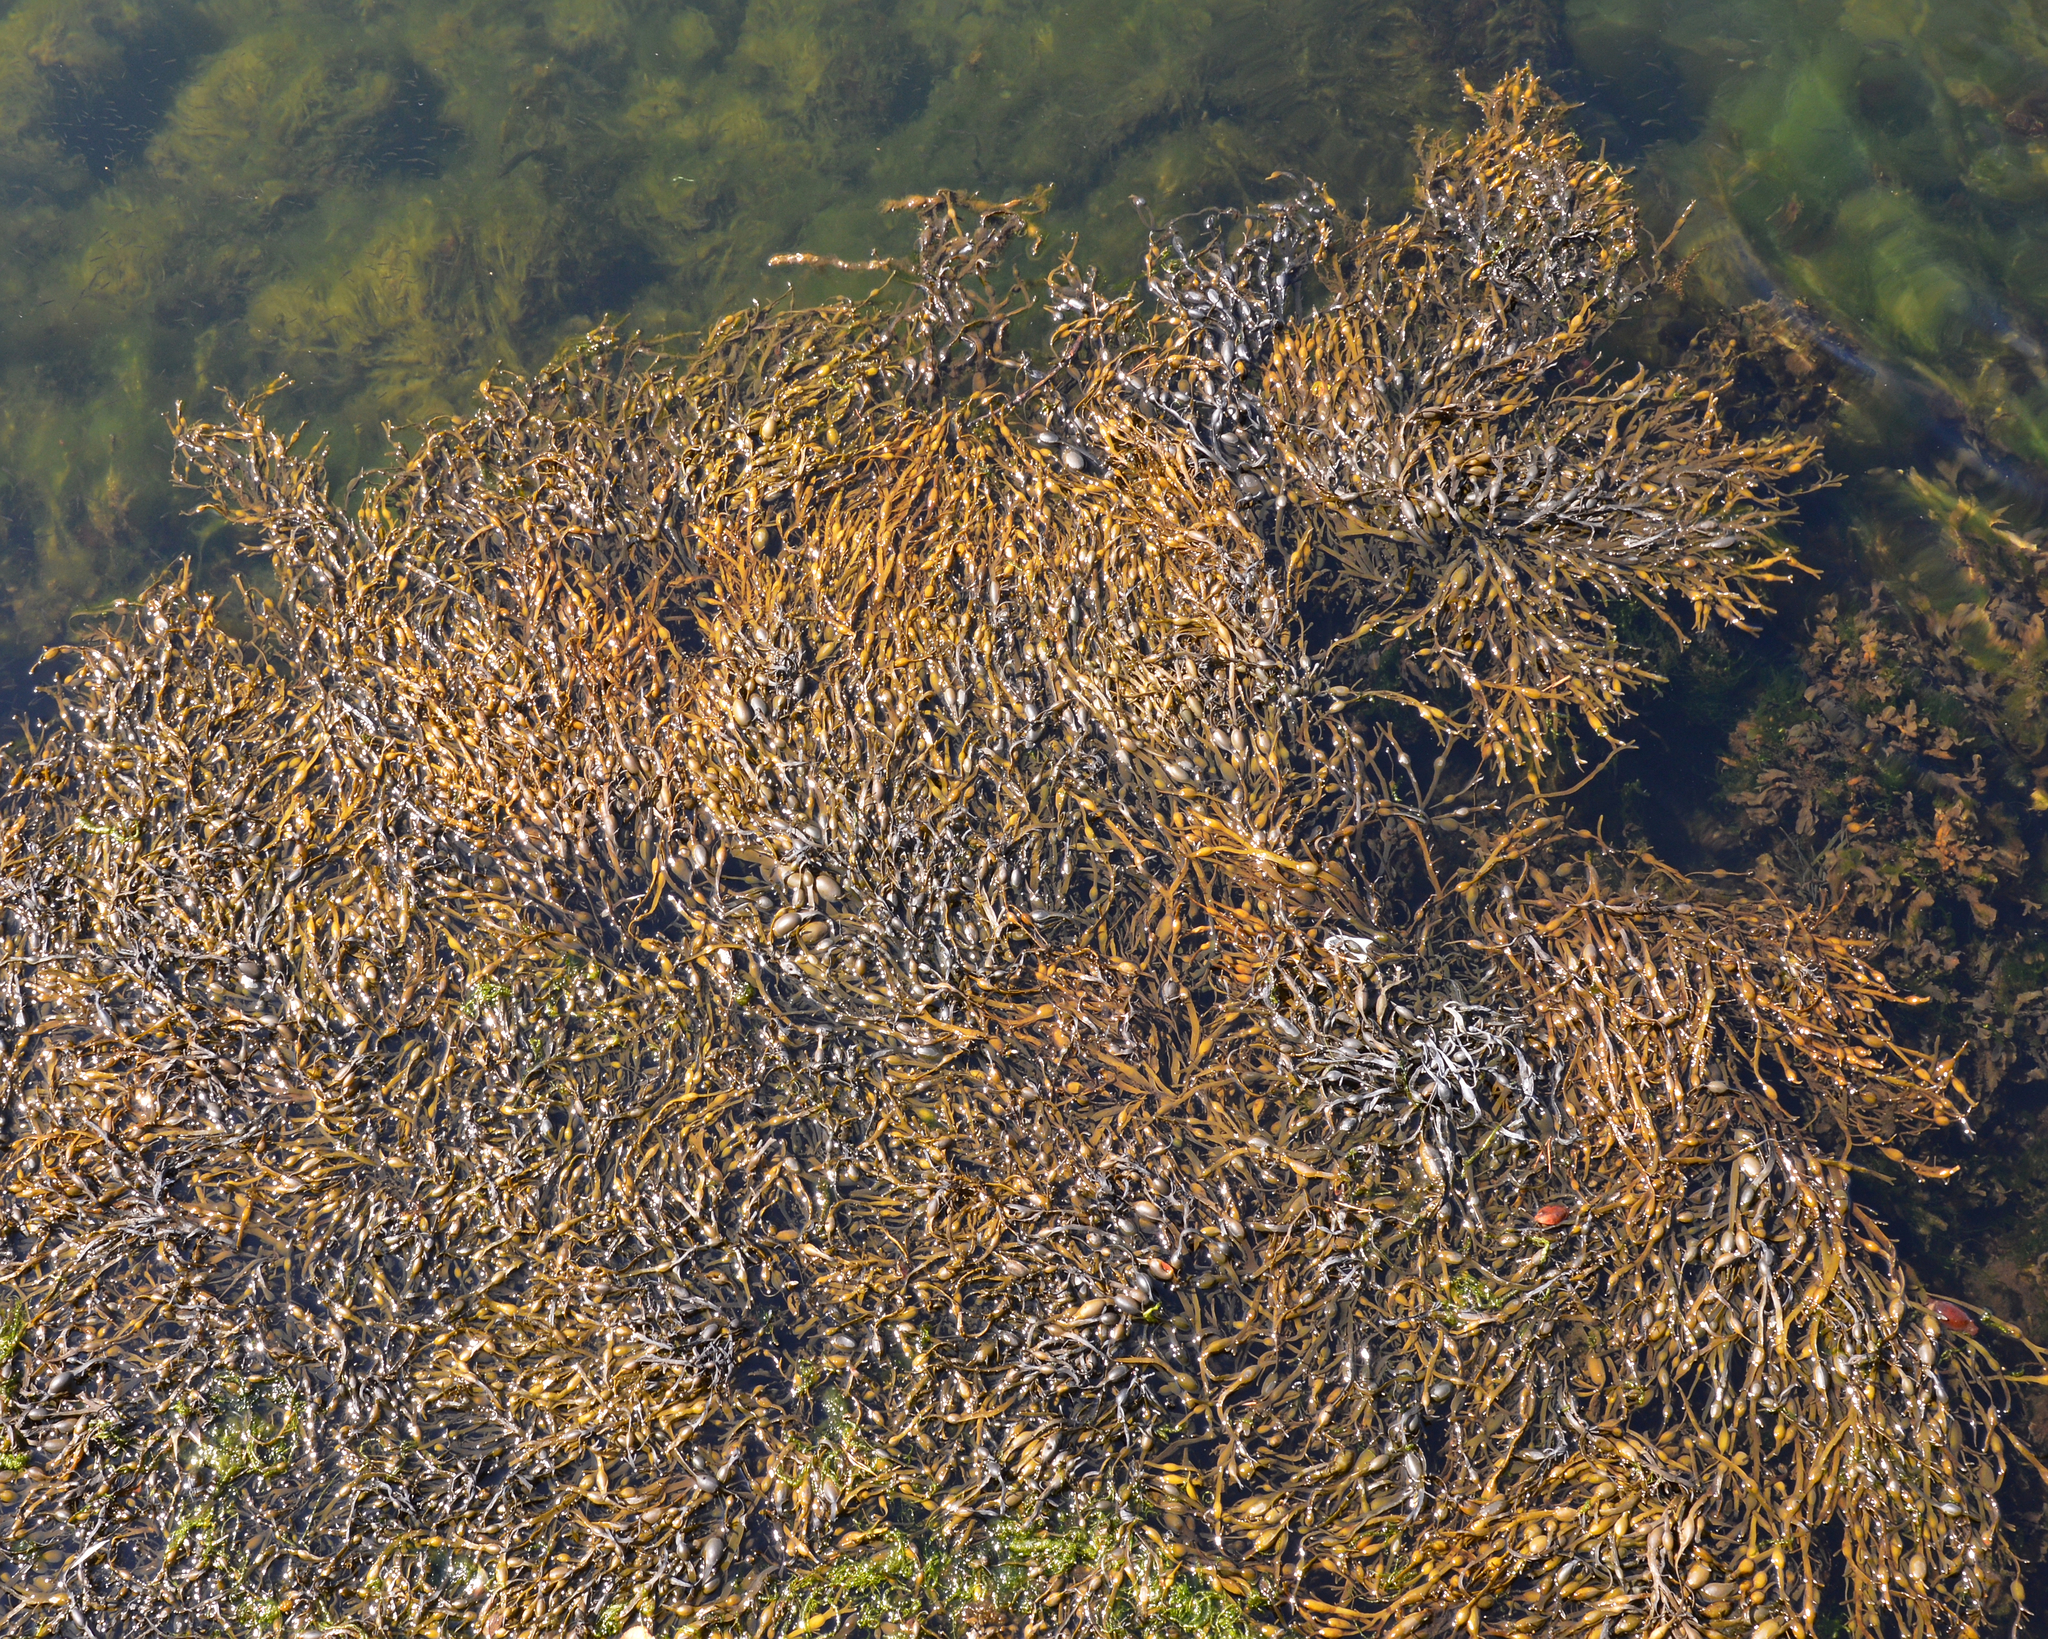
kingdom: Chromista
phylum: Ochrophyta
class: Phaeophyceae
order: Fucales
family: Fucaceae
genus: Ascophyllum
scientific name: Ascophyllum nodosum
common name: Knotted wrack
